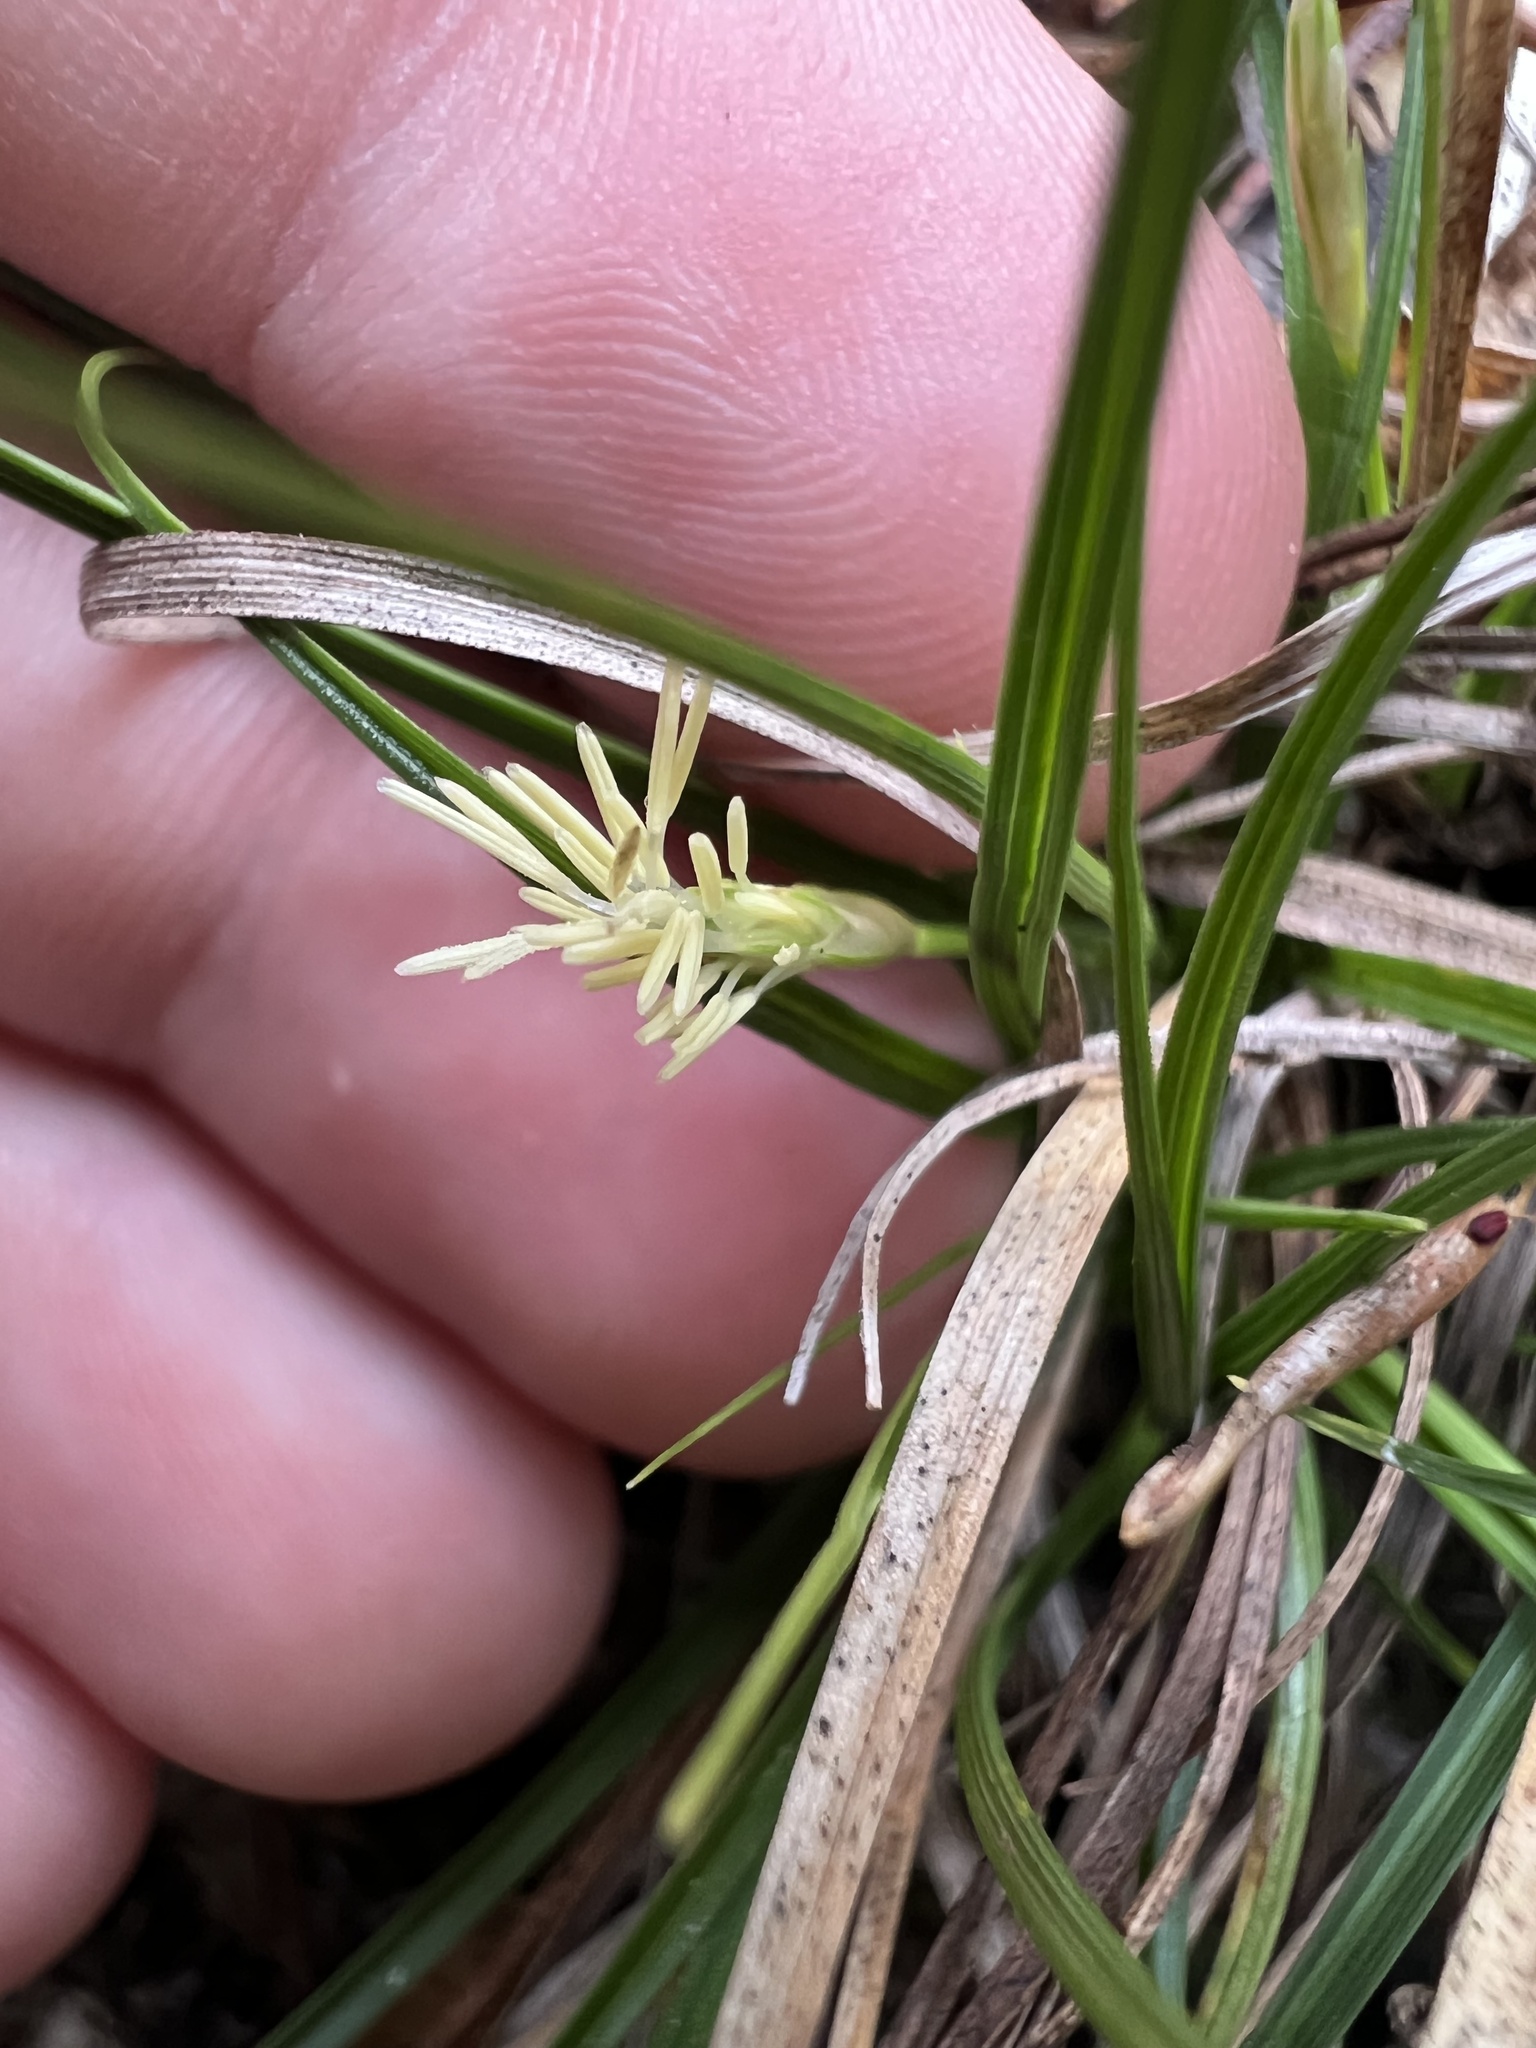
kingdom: Plantae
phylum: Tracheophyta
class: Liliopsida
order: Poales
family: Cyperaceae
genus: Carex
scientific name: Carex umbellata
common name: Early oak sedge
